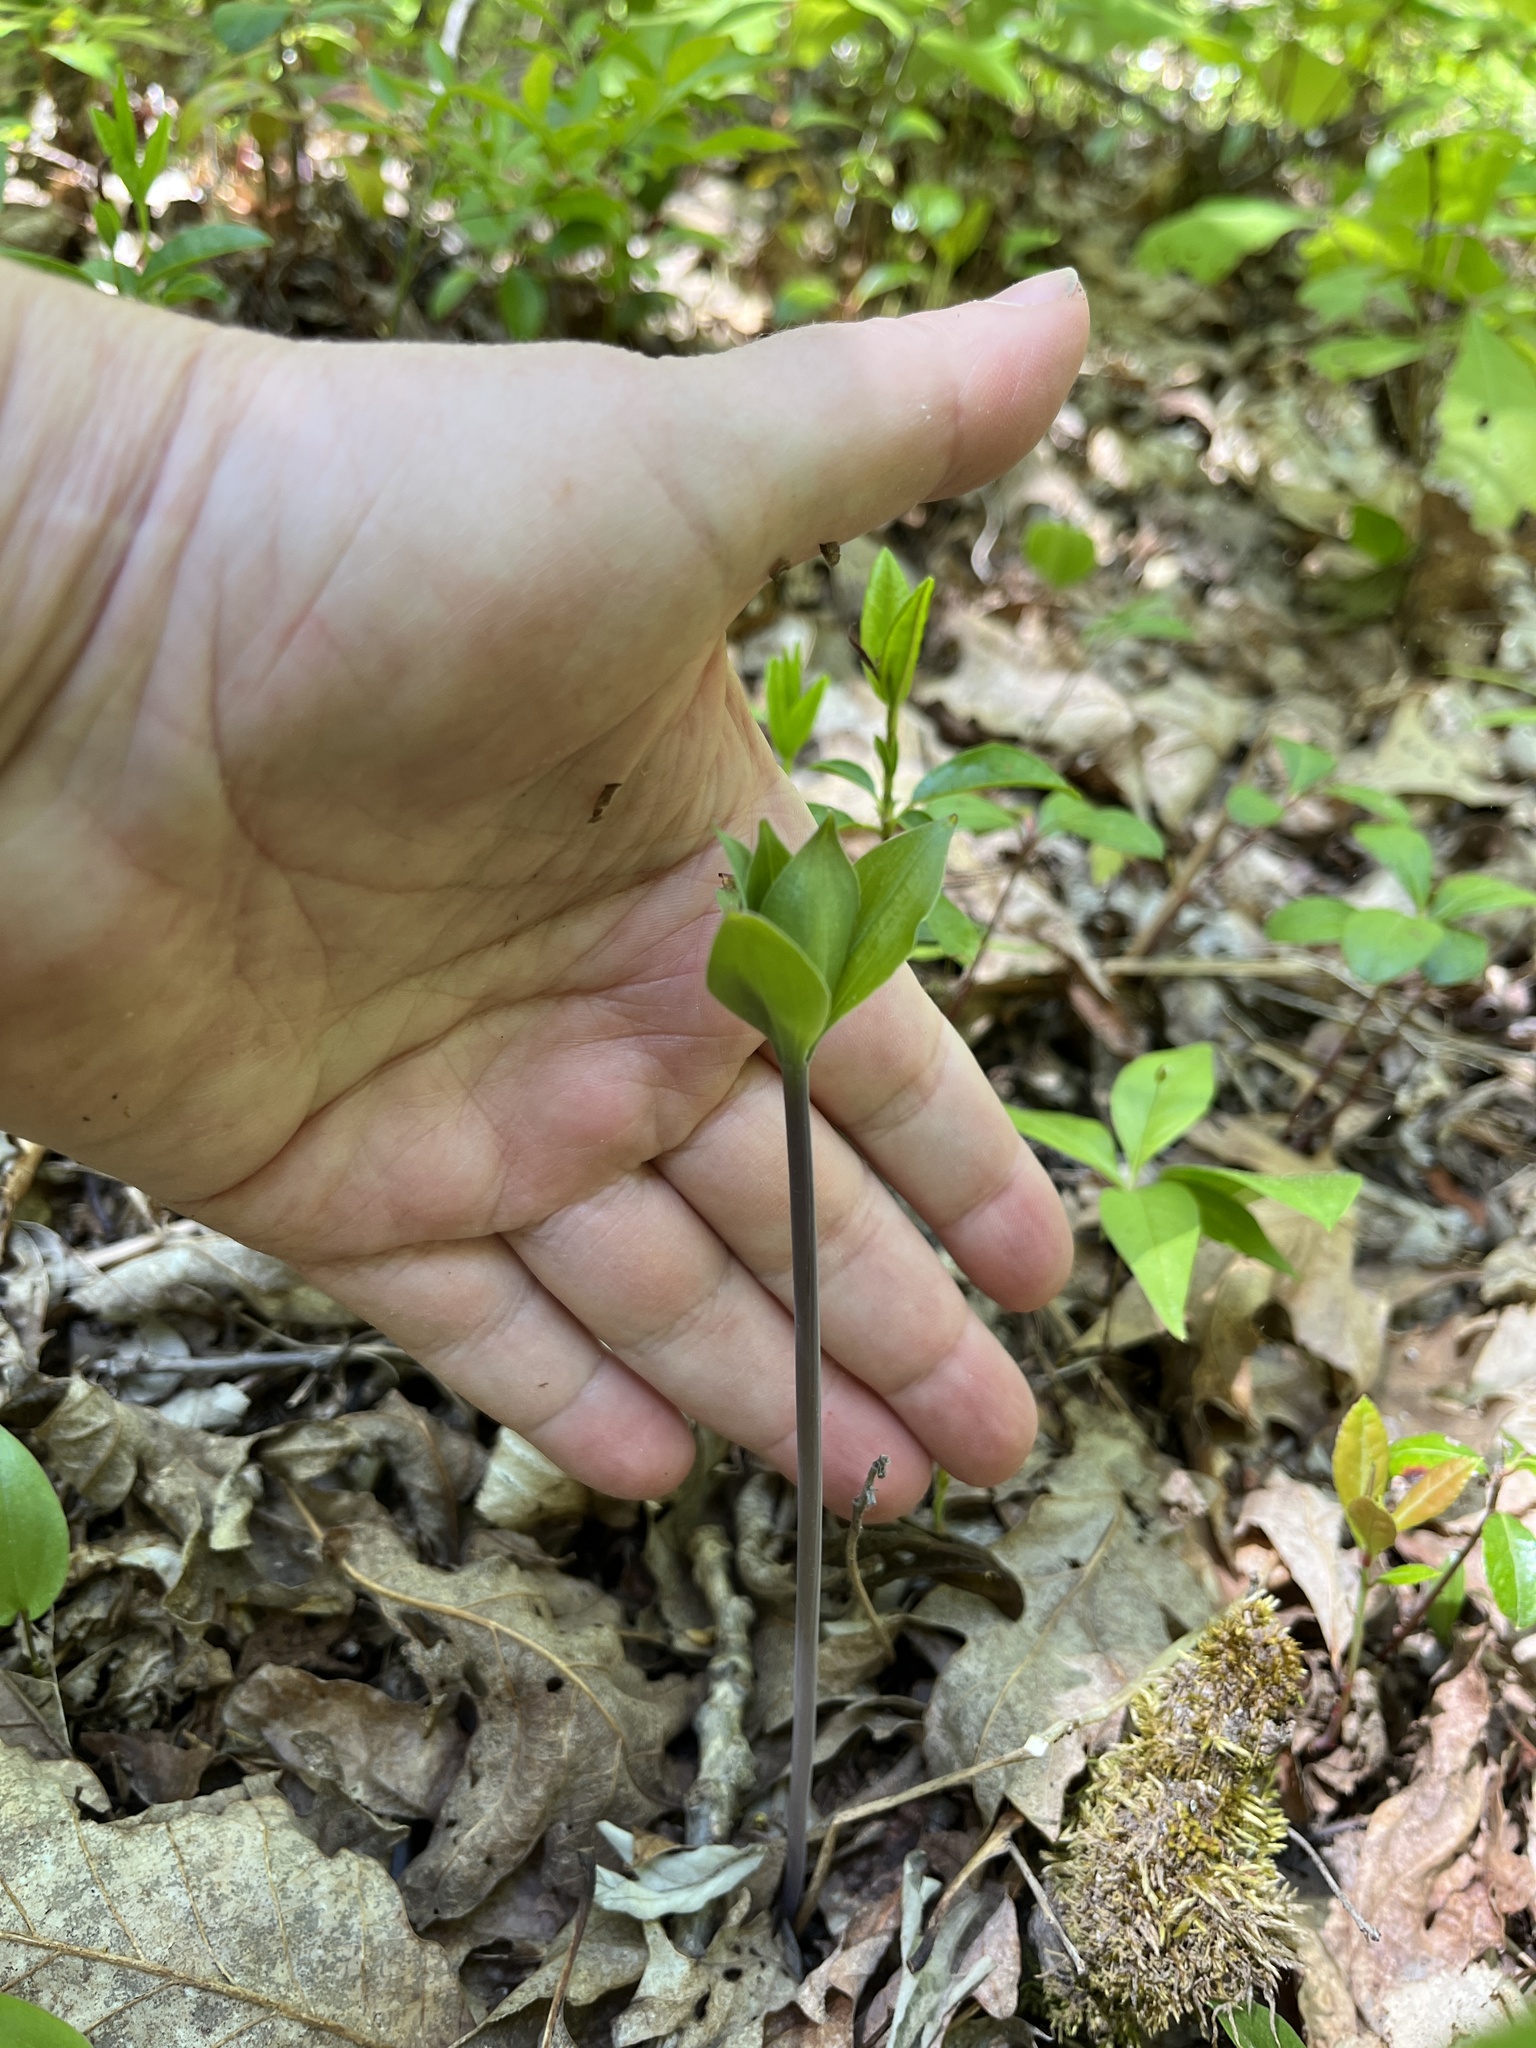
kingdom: Plantae
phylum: Tracheophyta
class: Liliopsida
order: Asparagales
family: Orchidaceae
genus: Isotria
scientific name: Isotria verticillata
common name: Large whorled pogonia
